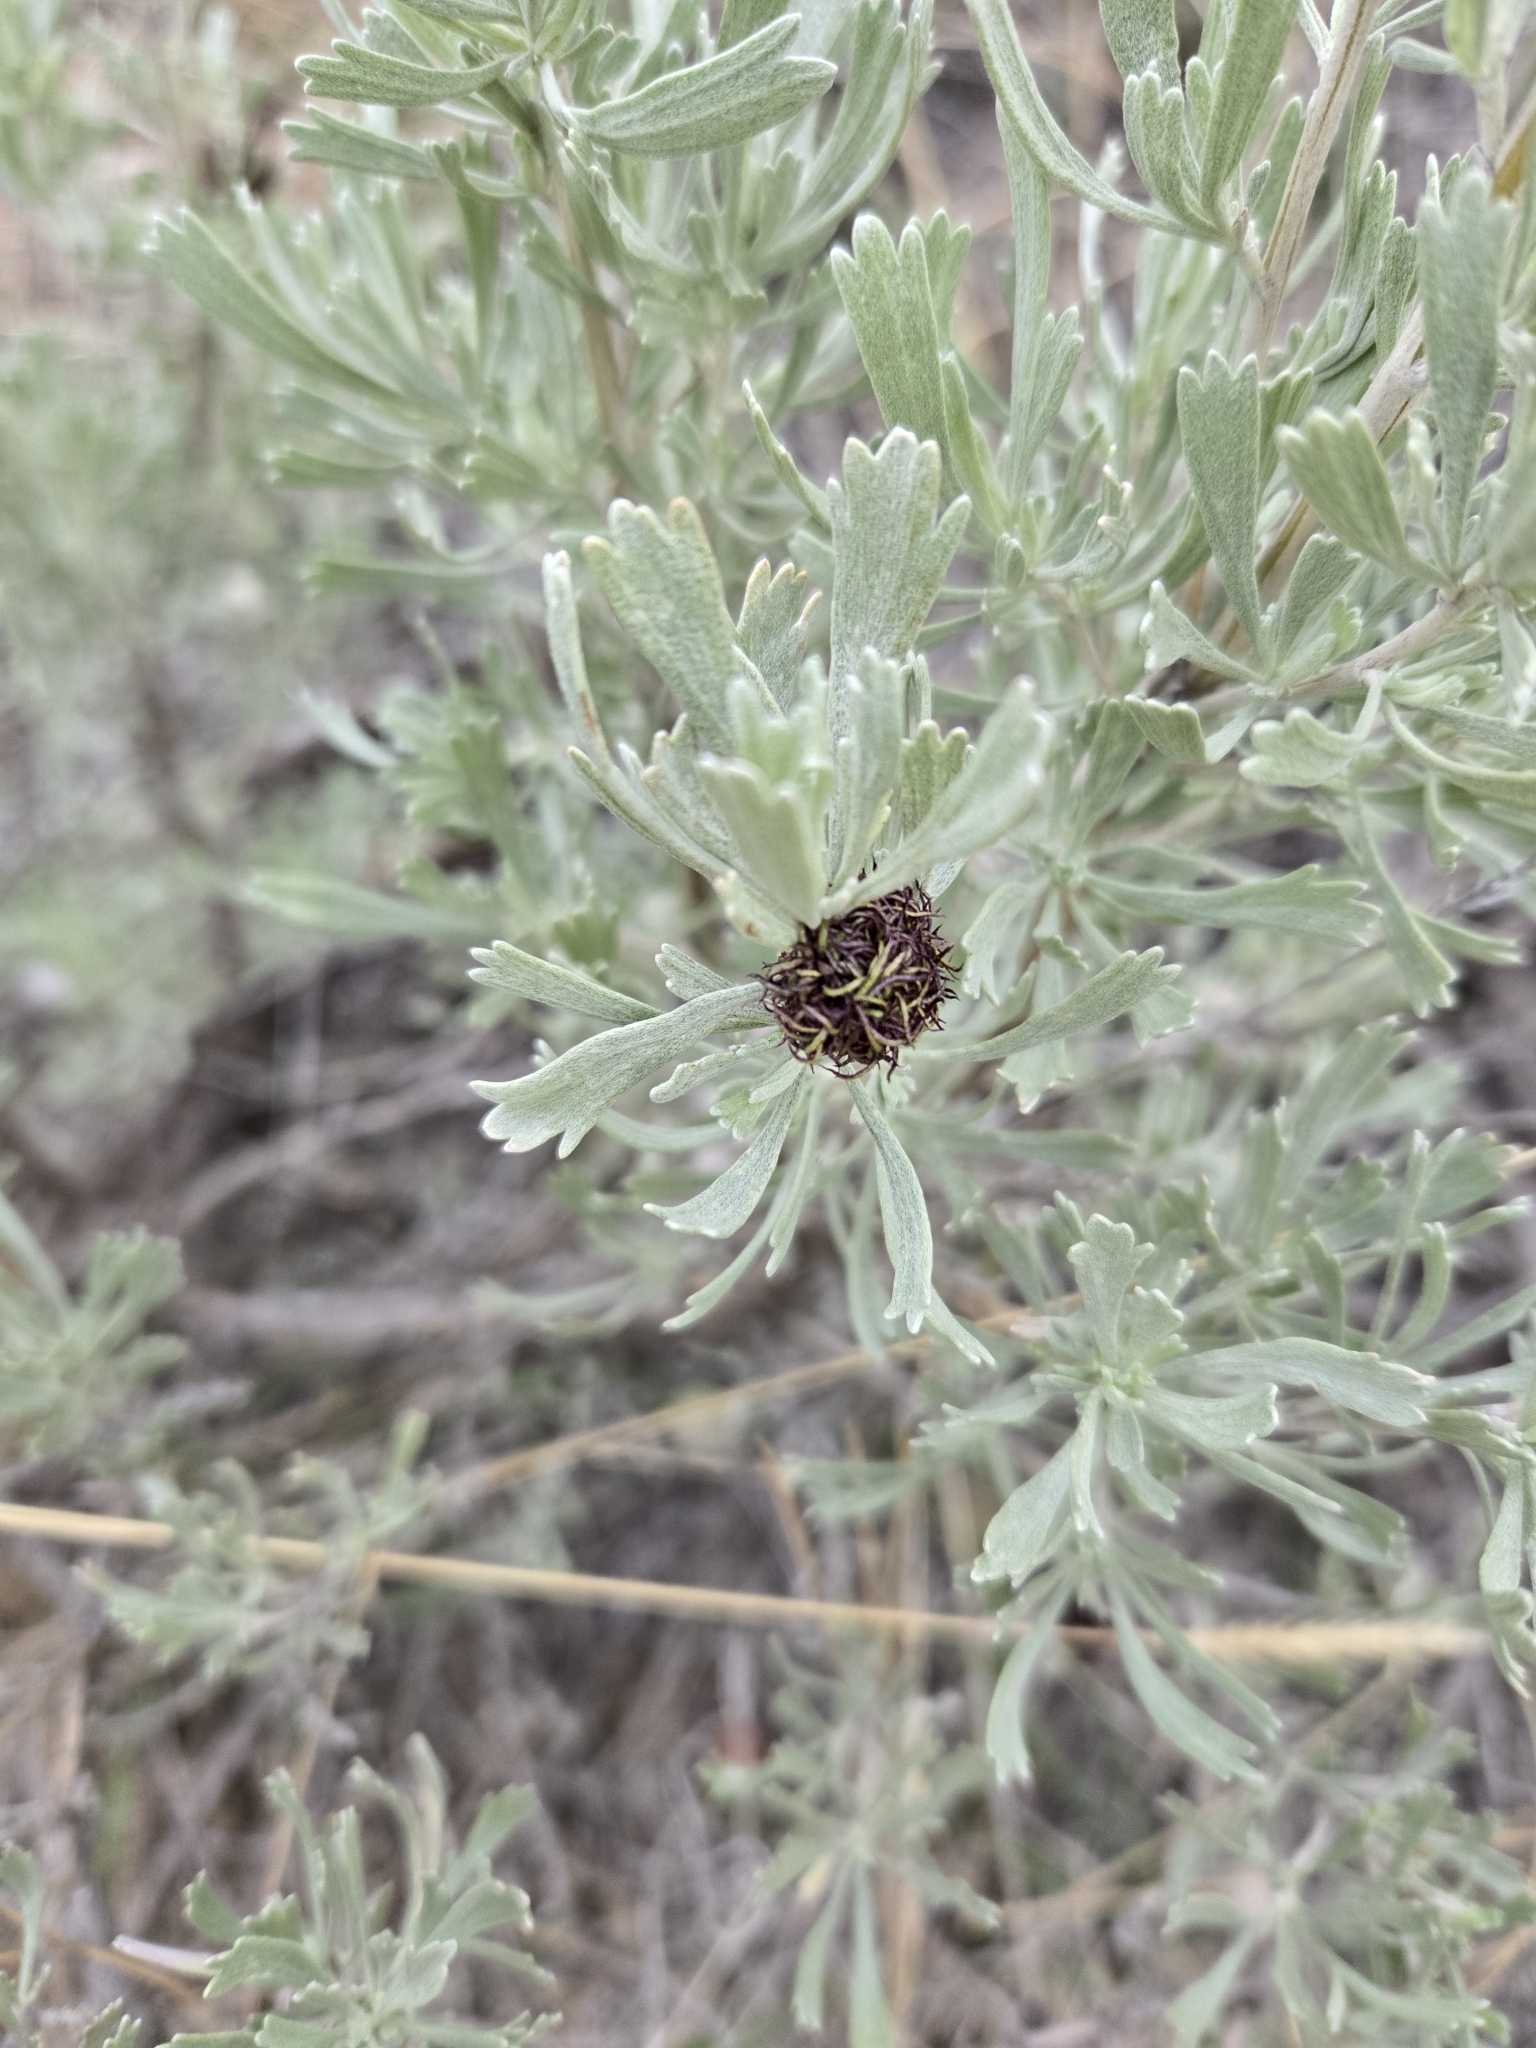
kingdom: Animalia
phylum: Arthropoda
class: Insecta
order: Diptera
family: Cecidomyiidae
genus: Rhopalomyia
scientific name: Rhopalomyia medusa
